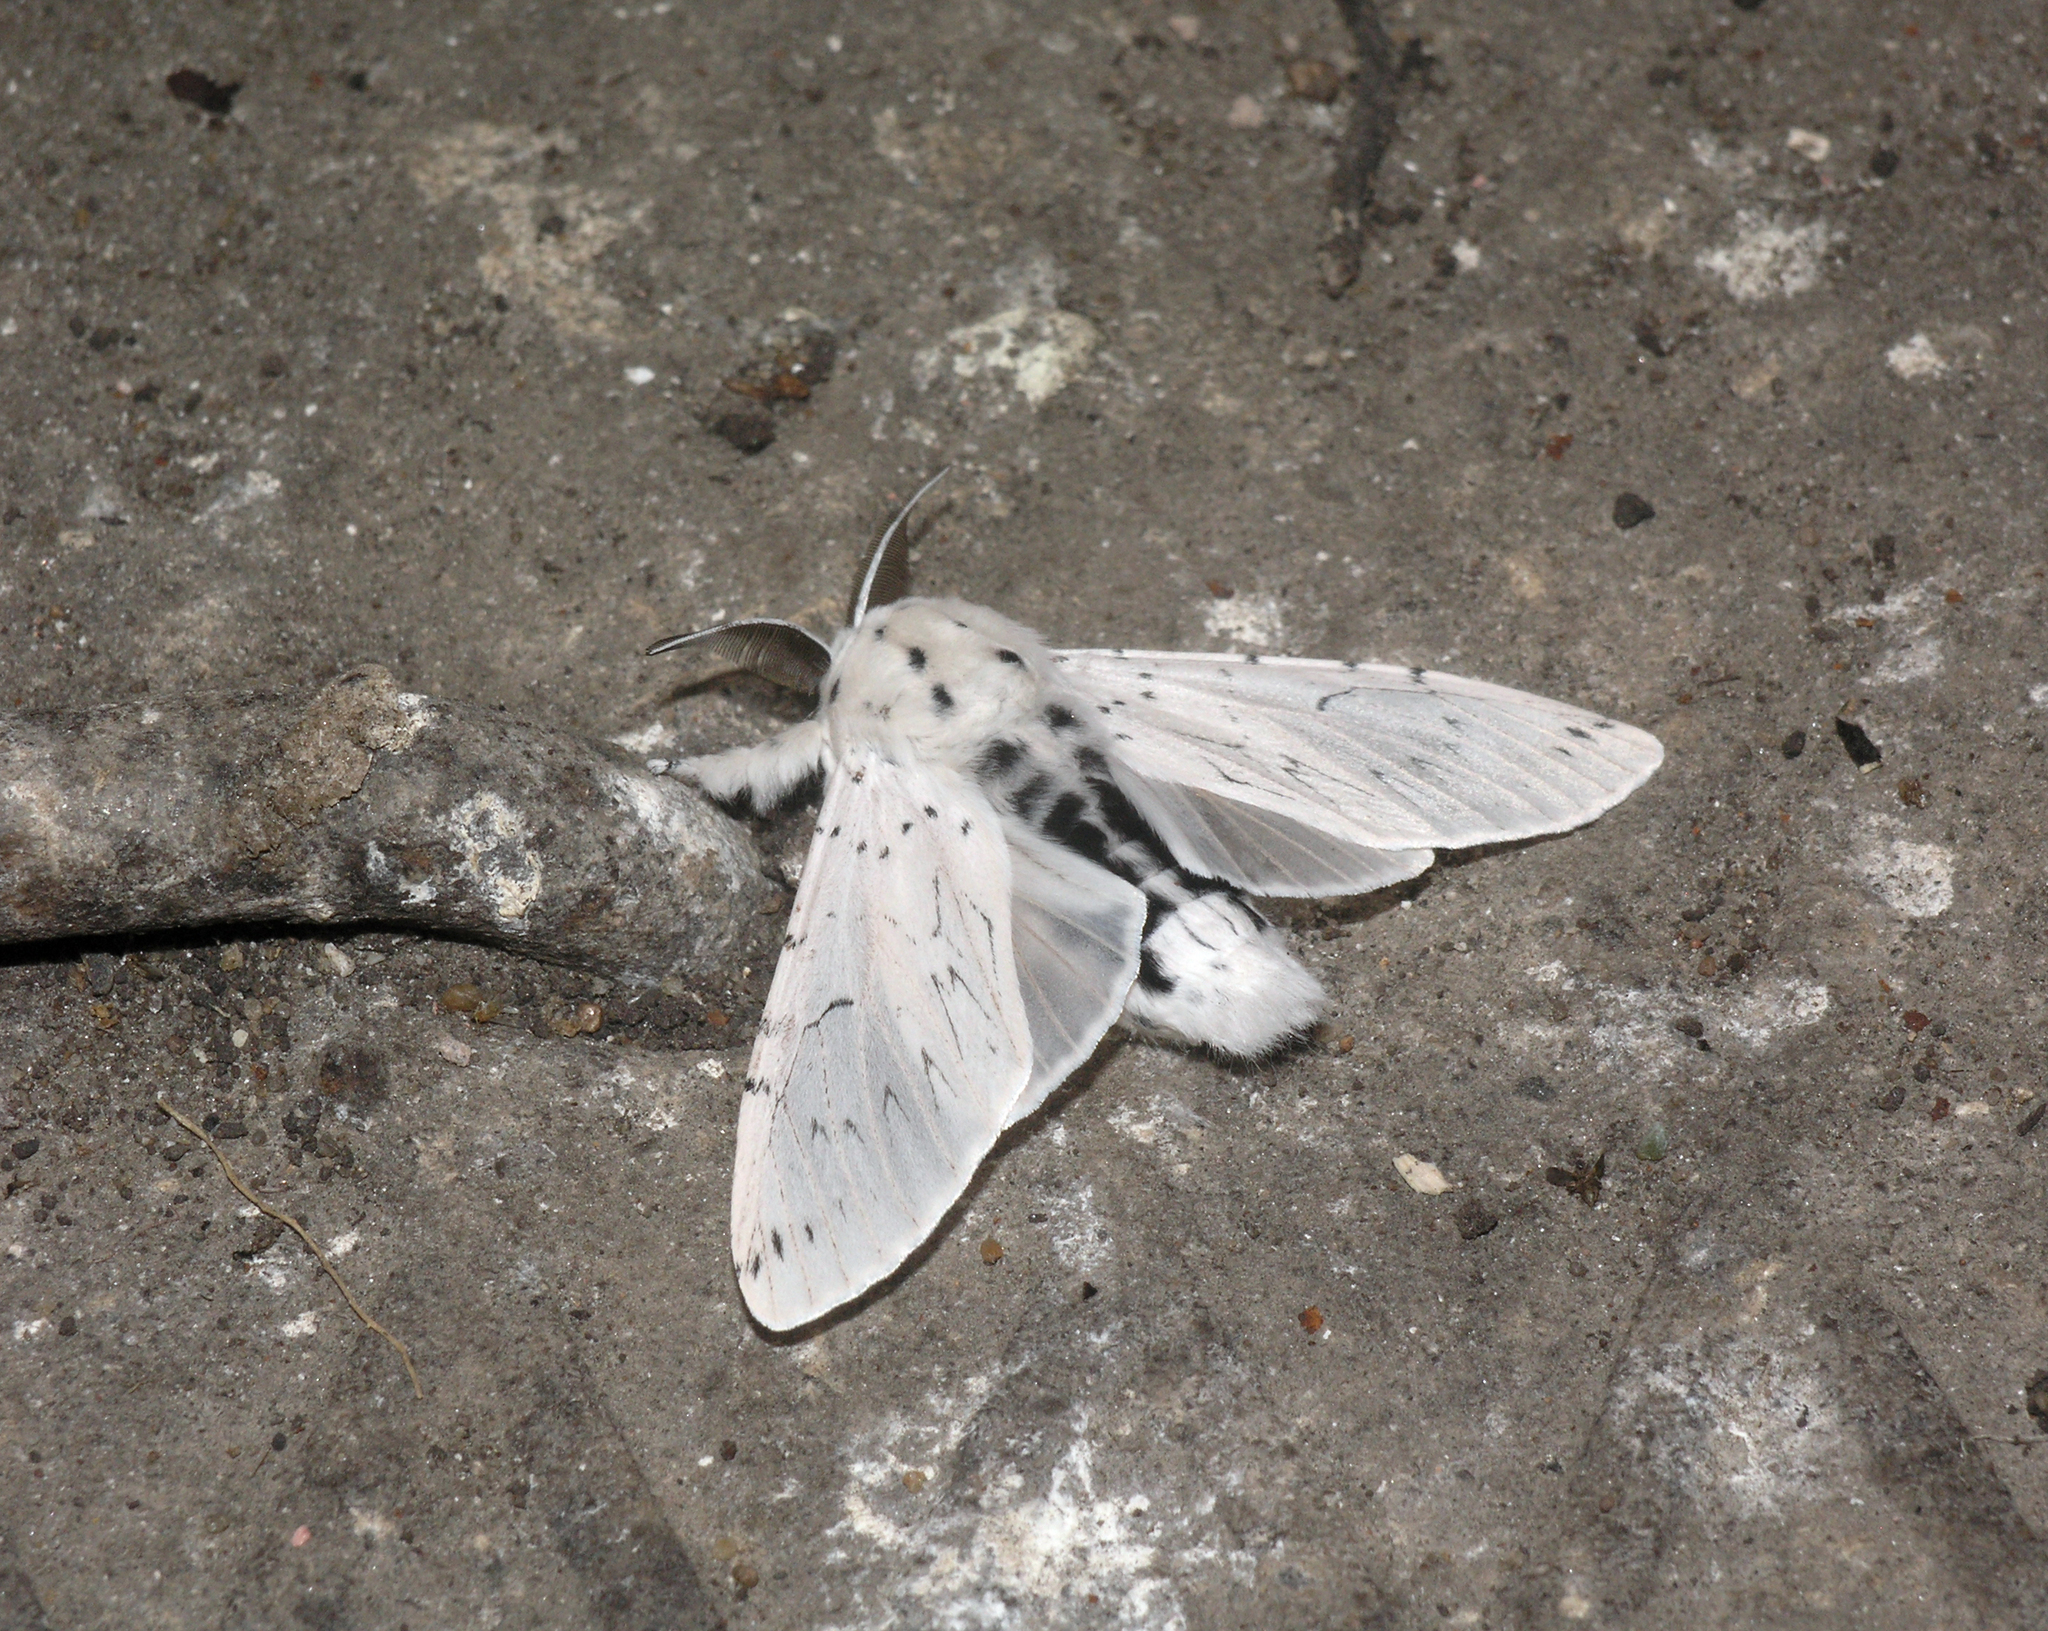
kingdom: Animalia
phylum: Arthropoda
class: Insecta
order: Lepidoptera
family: Notodontidae
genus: Cerura
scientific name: Cerura erminea
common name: Lesser puss moth
